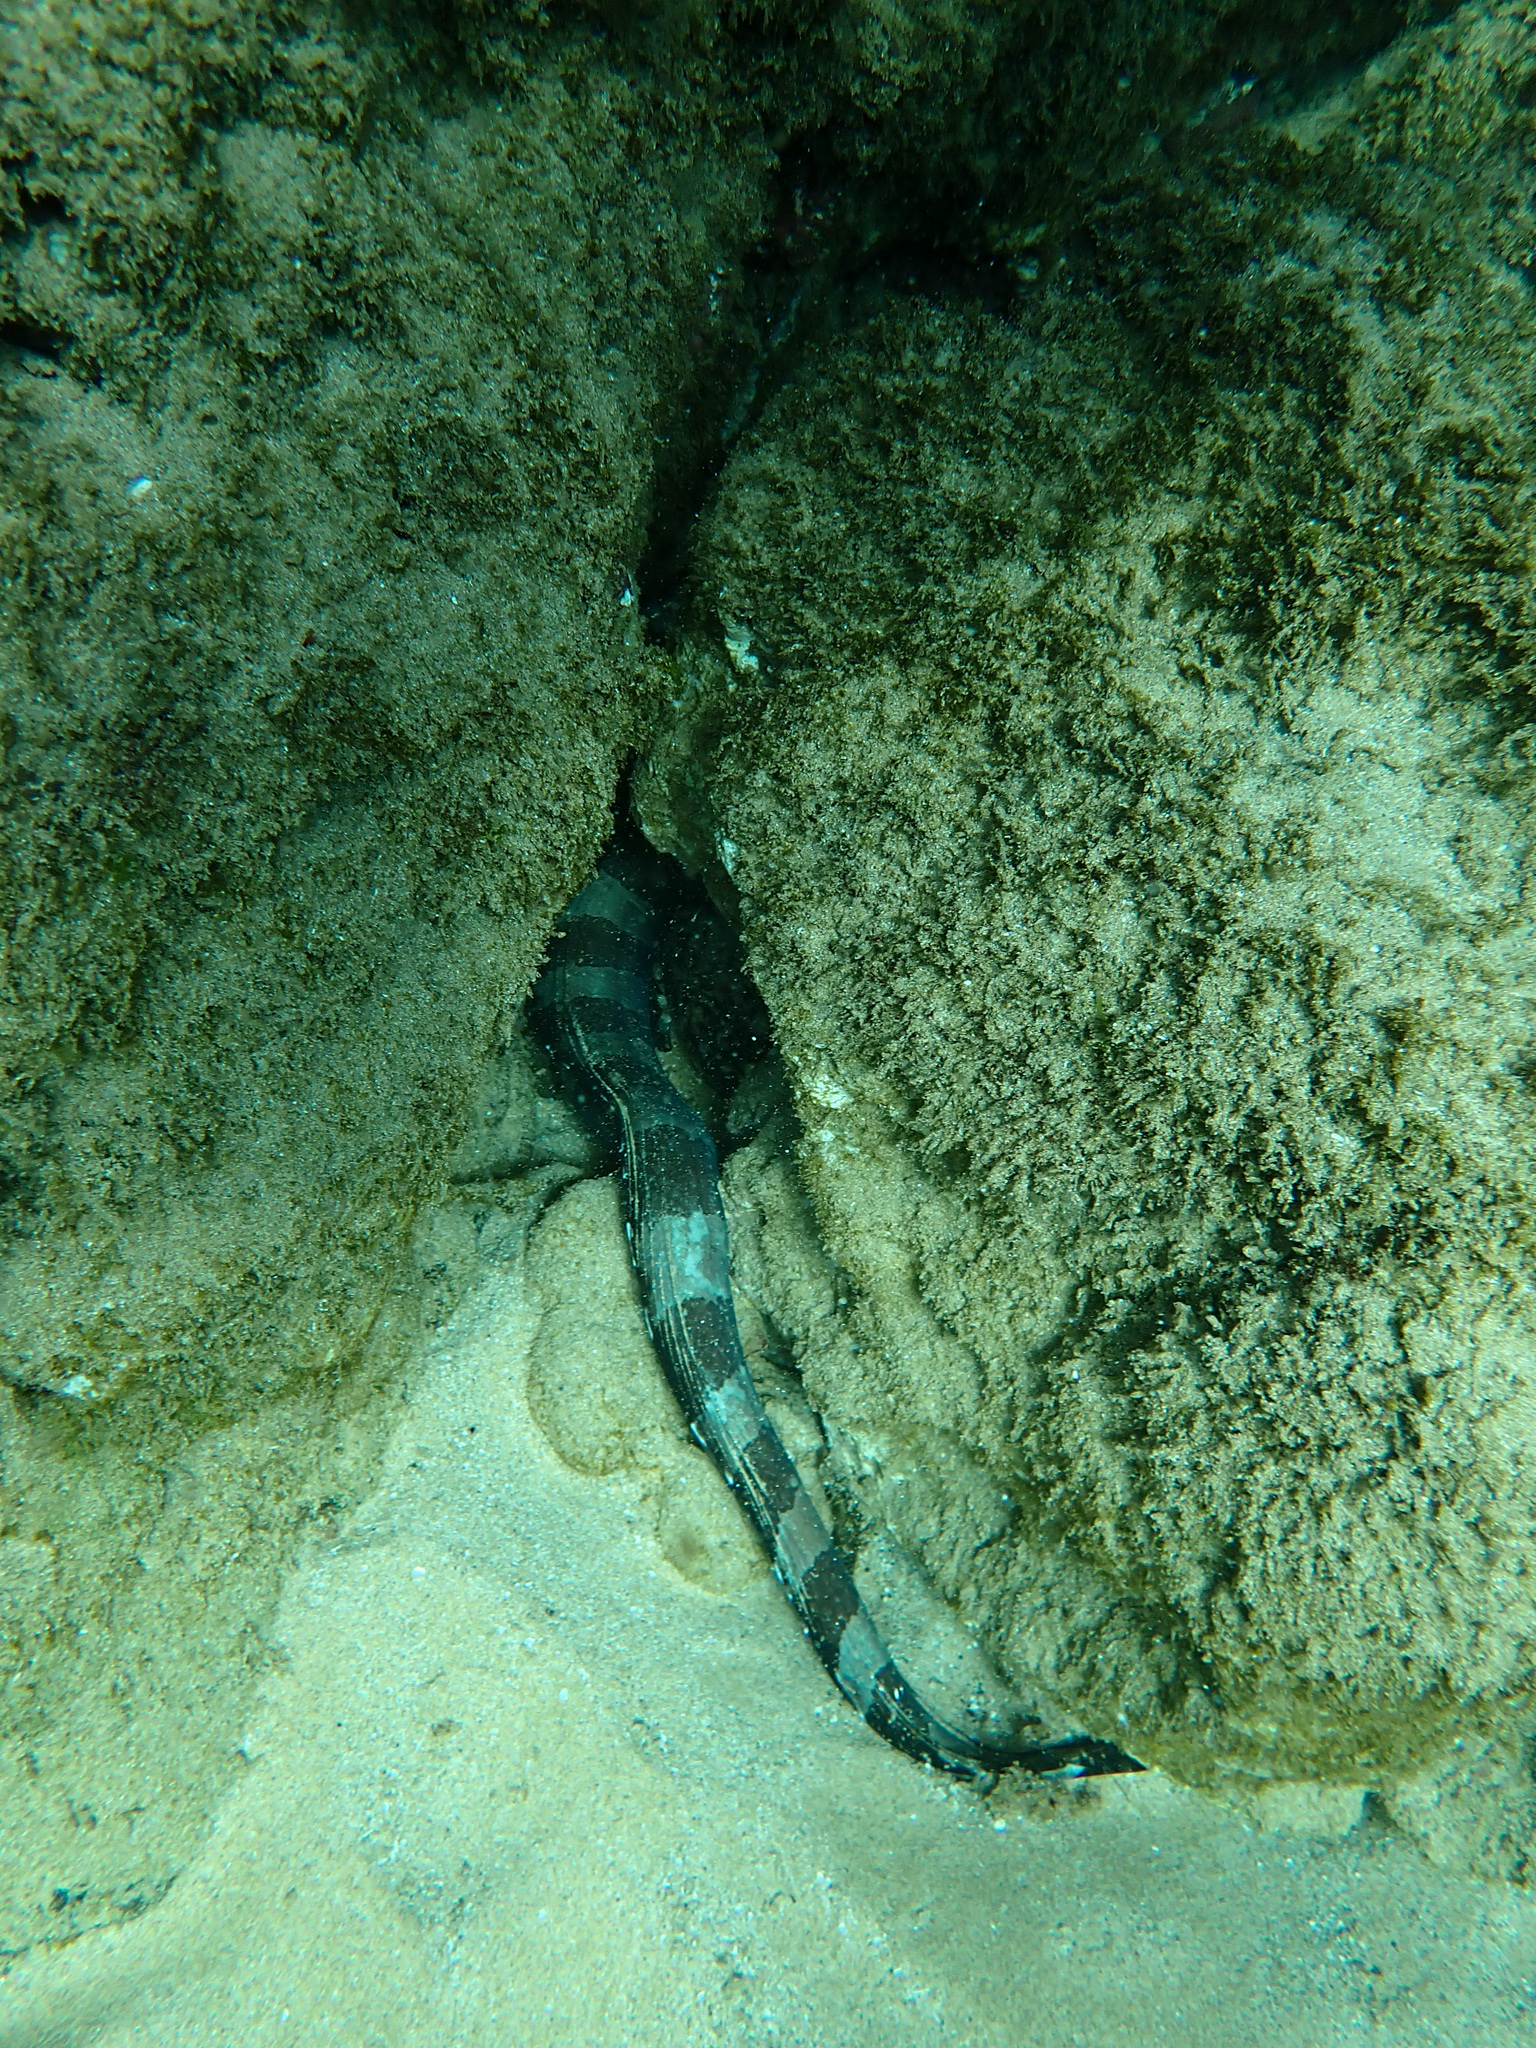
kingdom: Animalia
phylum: Chordata
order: Anguilliformes
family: Muraenidae
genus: Gymnothorax
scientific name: Gymnothorax rueppelliae
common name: Banded moray
